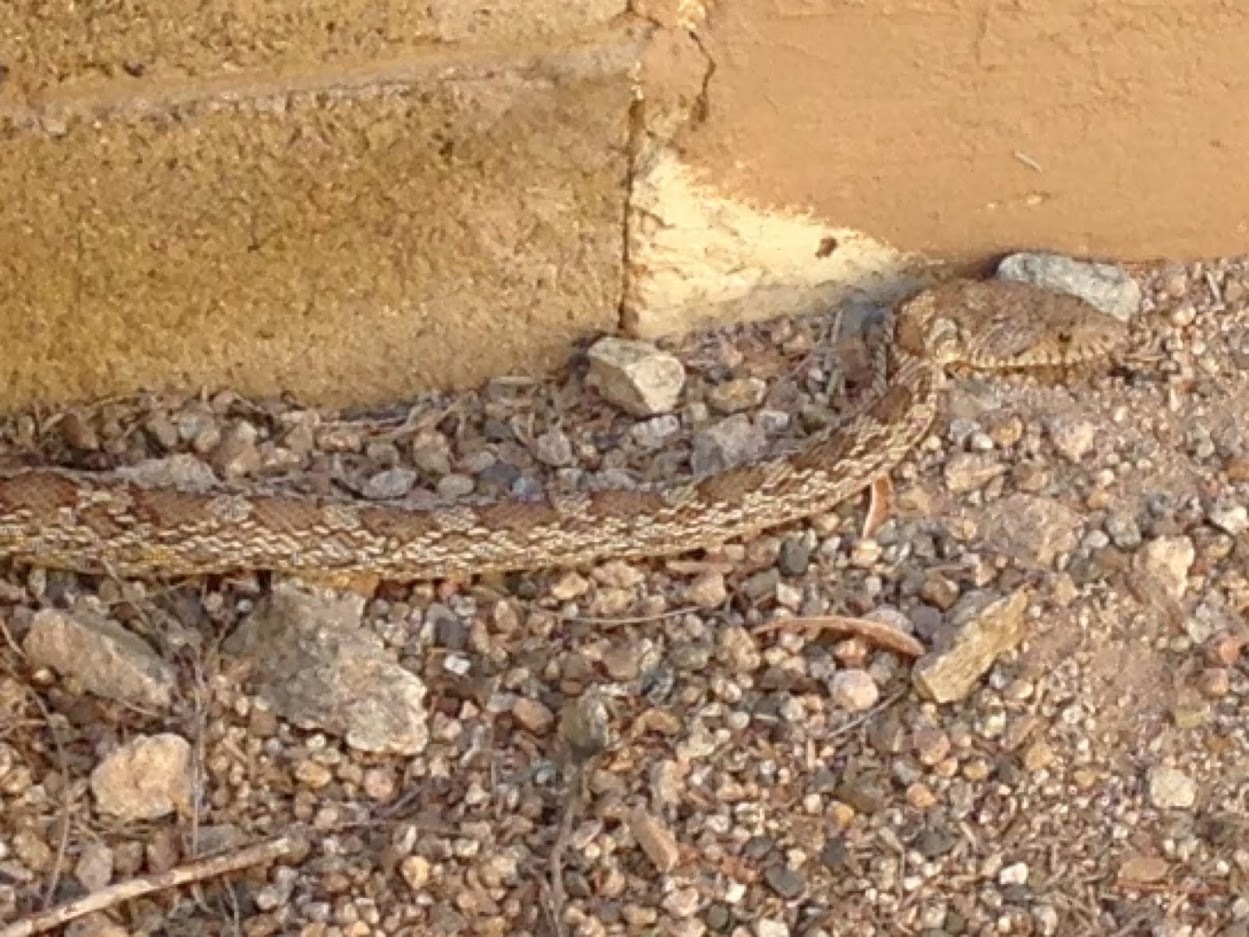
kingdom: Animalia
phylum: Chordata
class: Squamata
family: Colubridae
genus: Pituophis
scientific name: Pituophis catenifer
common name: Gopher snake
